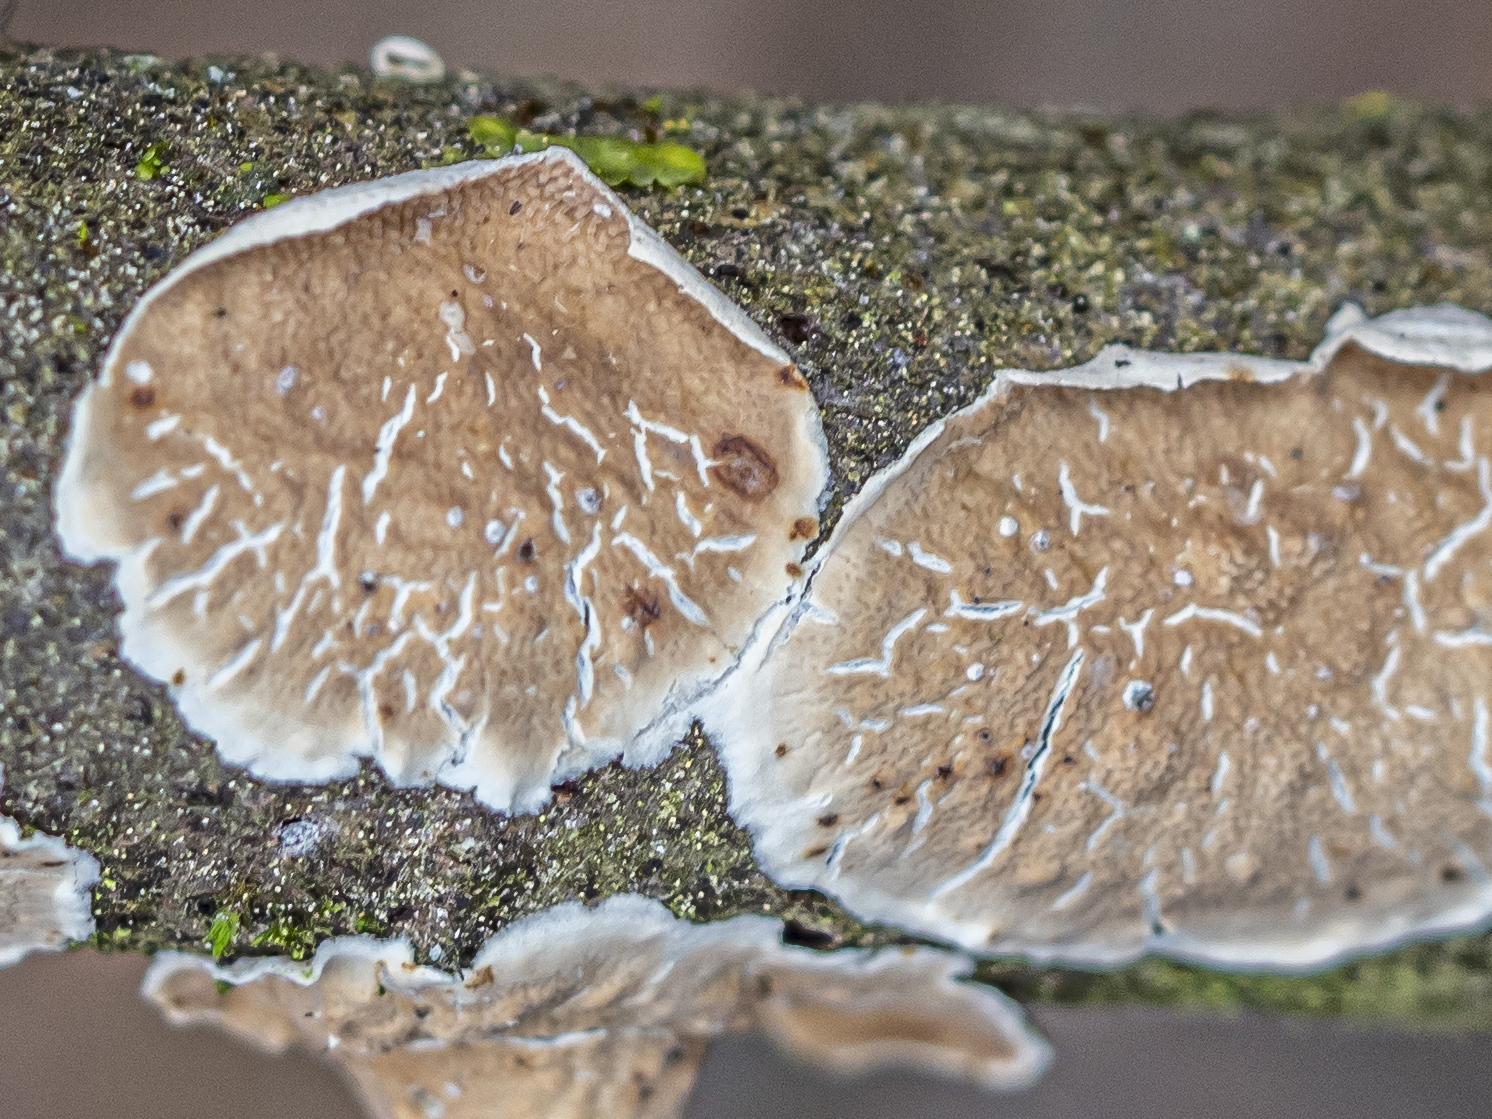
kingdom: Fungi
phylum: Basidiomycota
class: Agaricomycetes
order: Polyporales
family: Irpicaceae
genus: Byssomerulius
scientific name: Byssomerulius corium
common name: Netted crust
